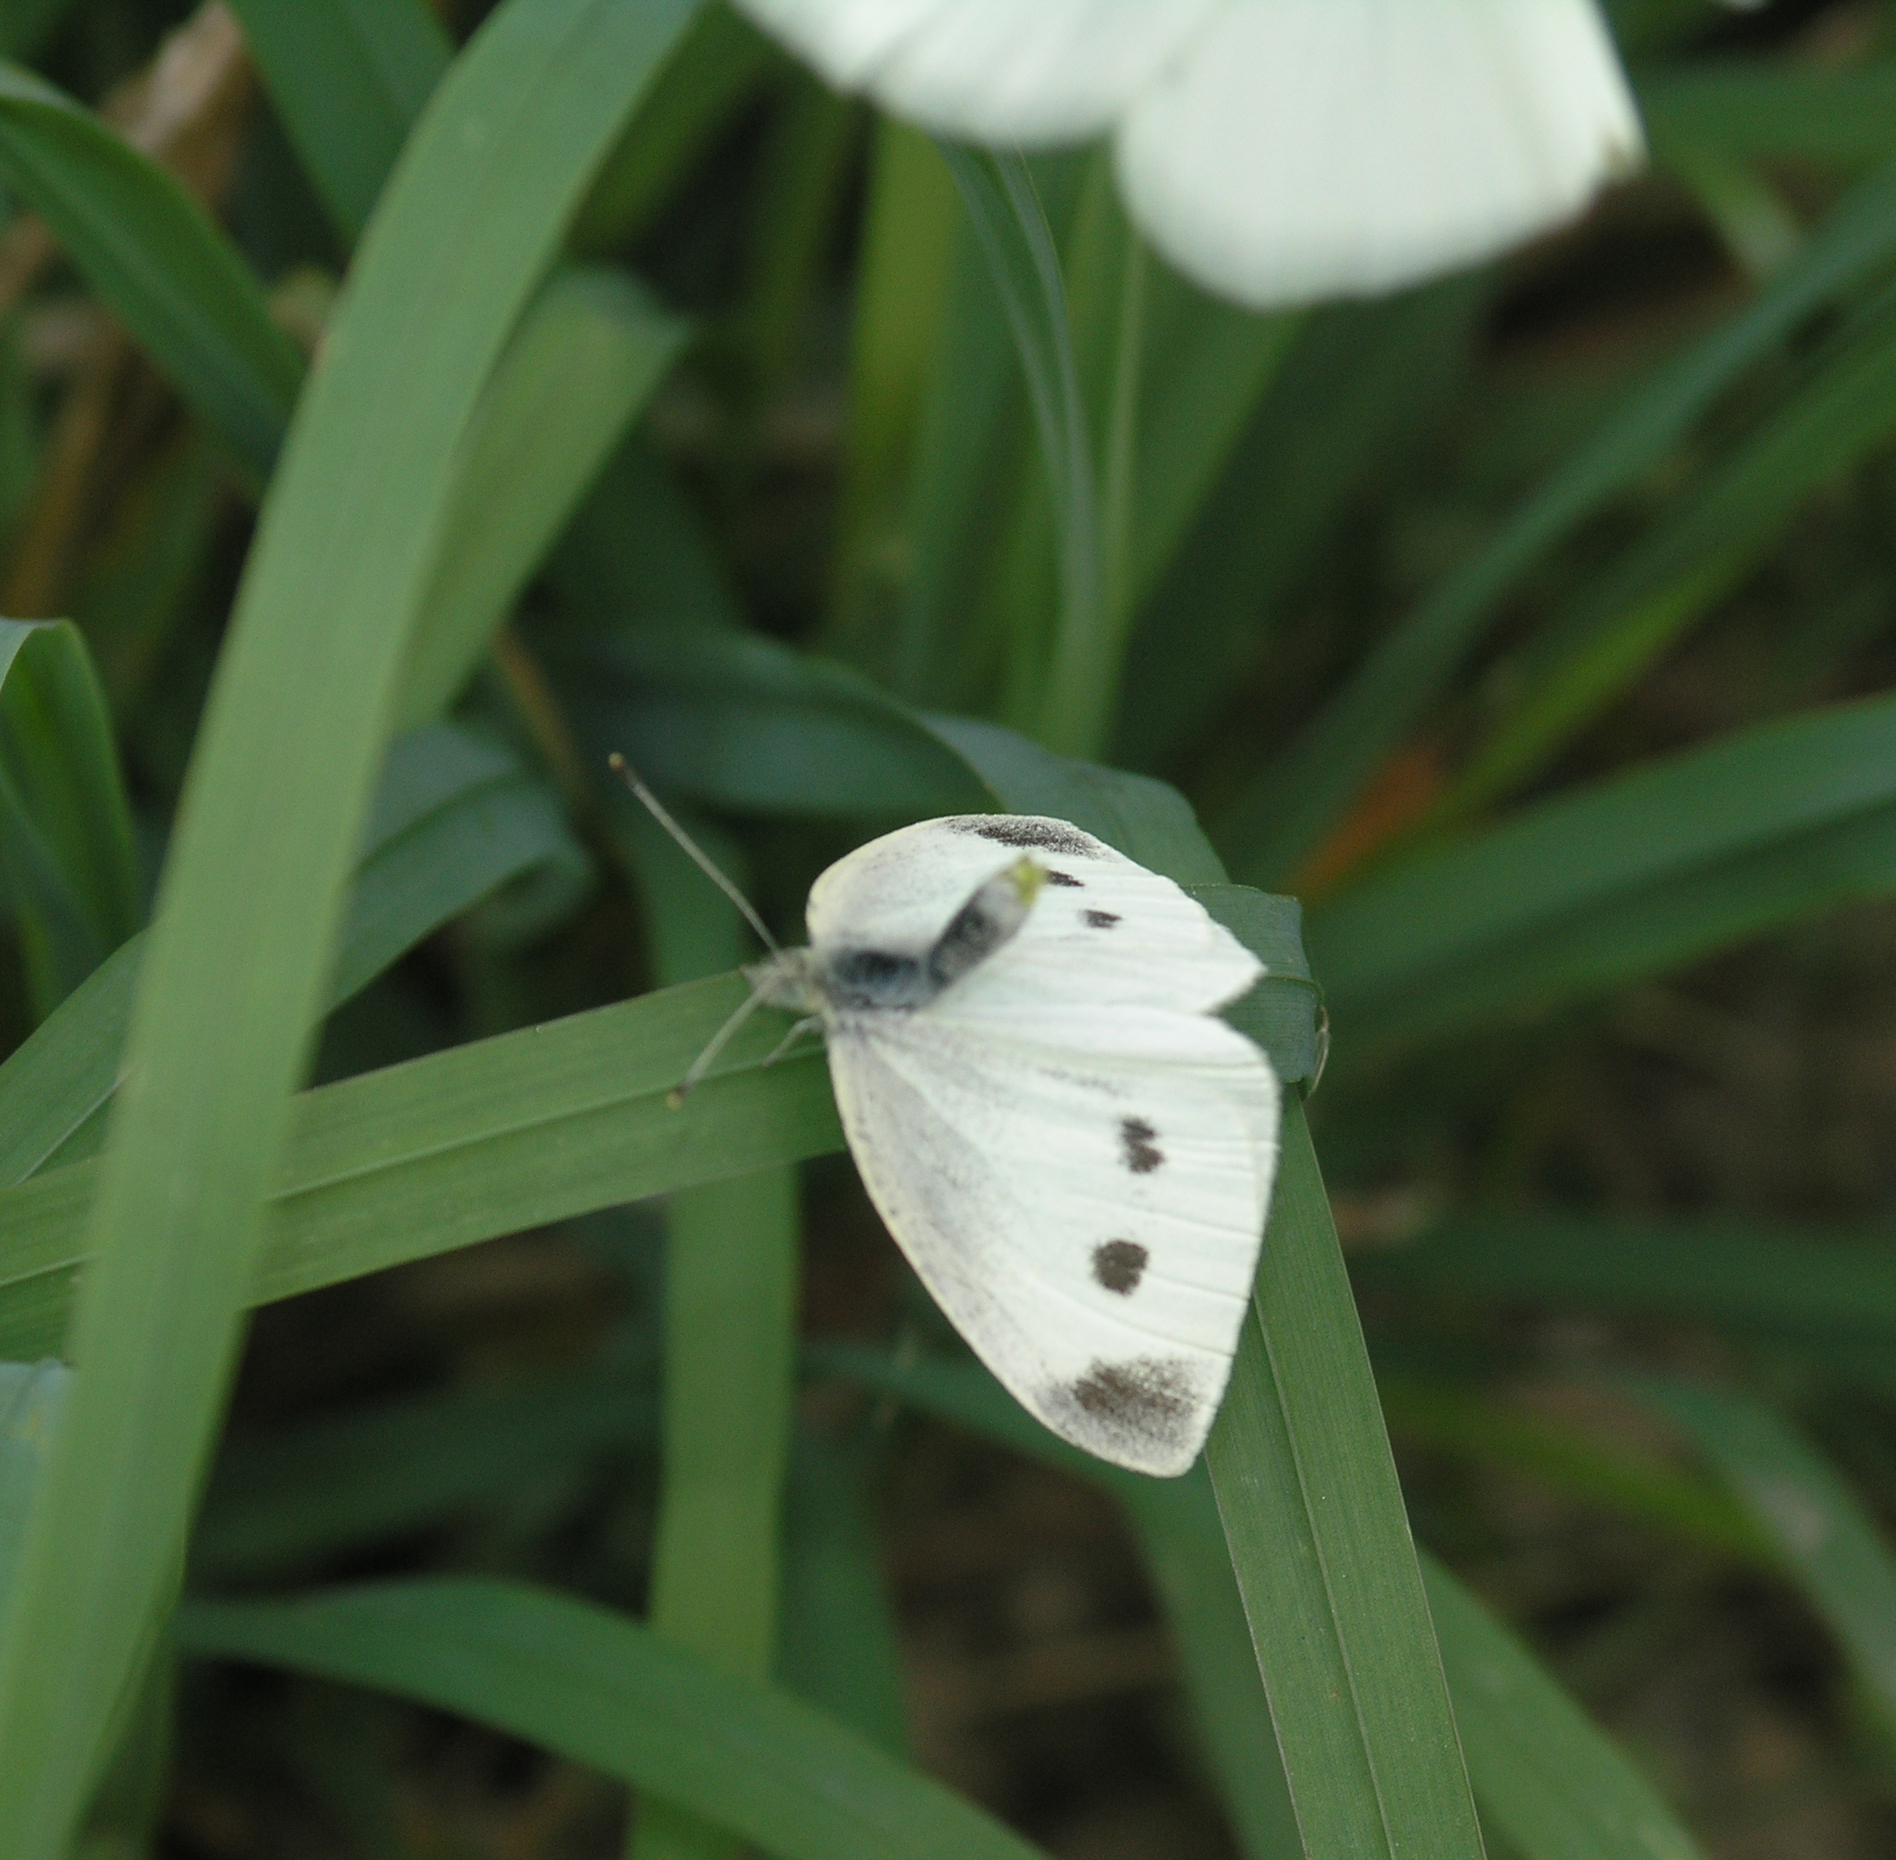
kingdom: Animalia
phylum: Arthropoda
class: Insecta
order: Lepidoptera
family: Pieridae
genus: Pieris
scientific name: Pieris rapae
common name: Small white
